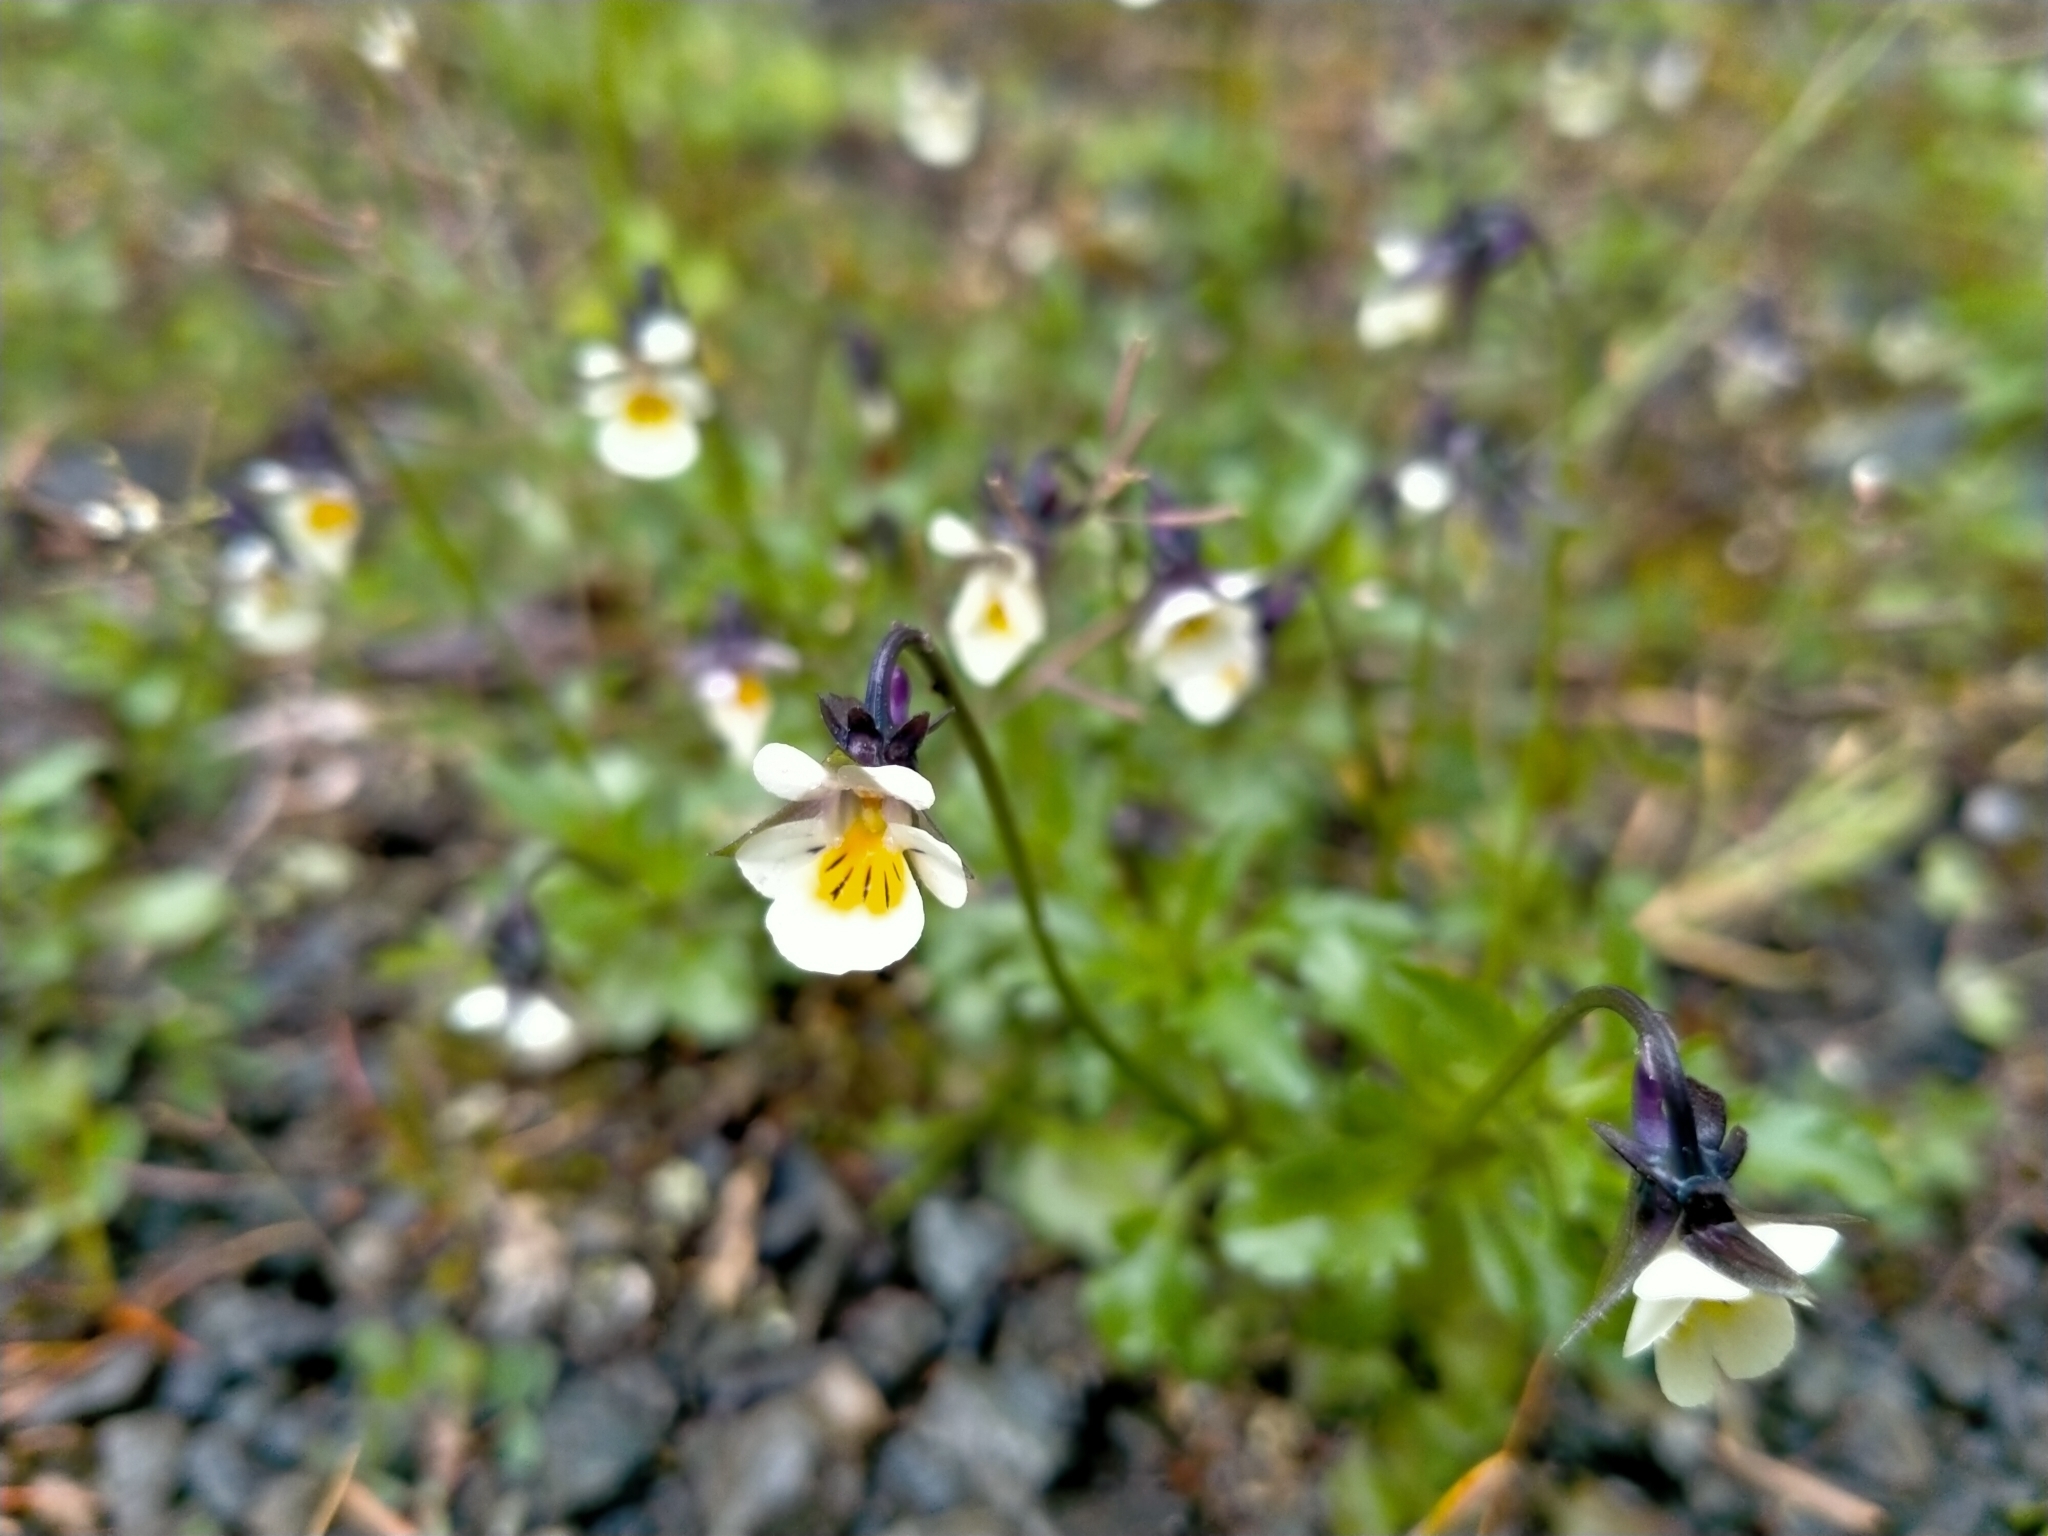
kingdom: Plantae
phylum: Tracheophyta
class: Magnoliopsida
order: Malpighiales
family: Violaceae
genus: Viola
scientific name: Viola arvensis
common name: Field pansy
